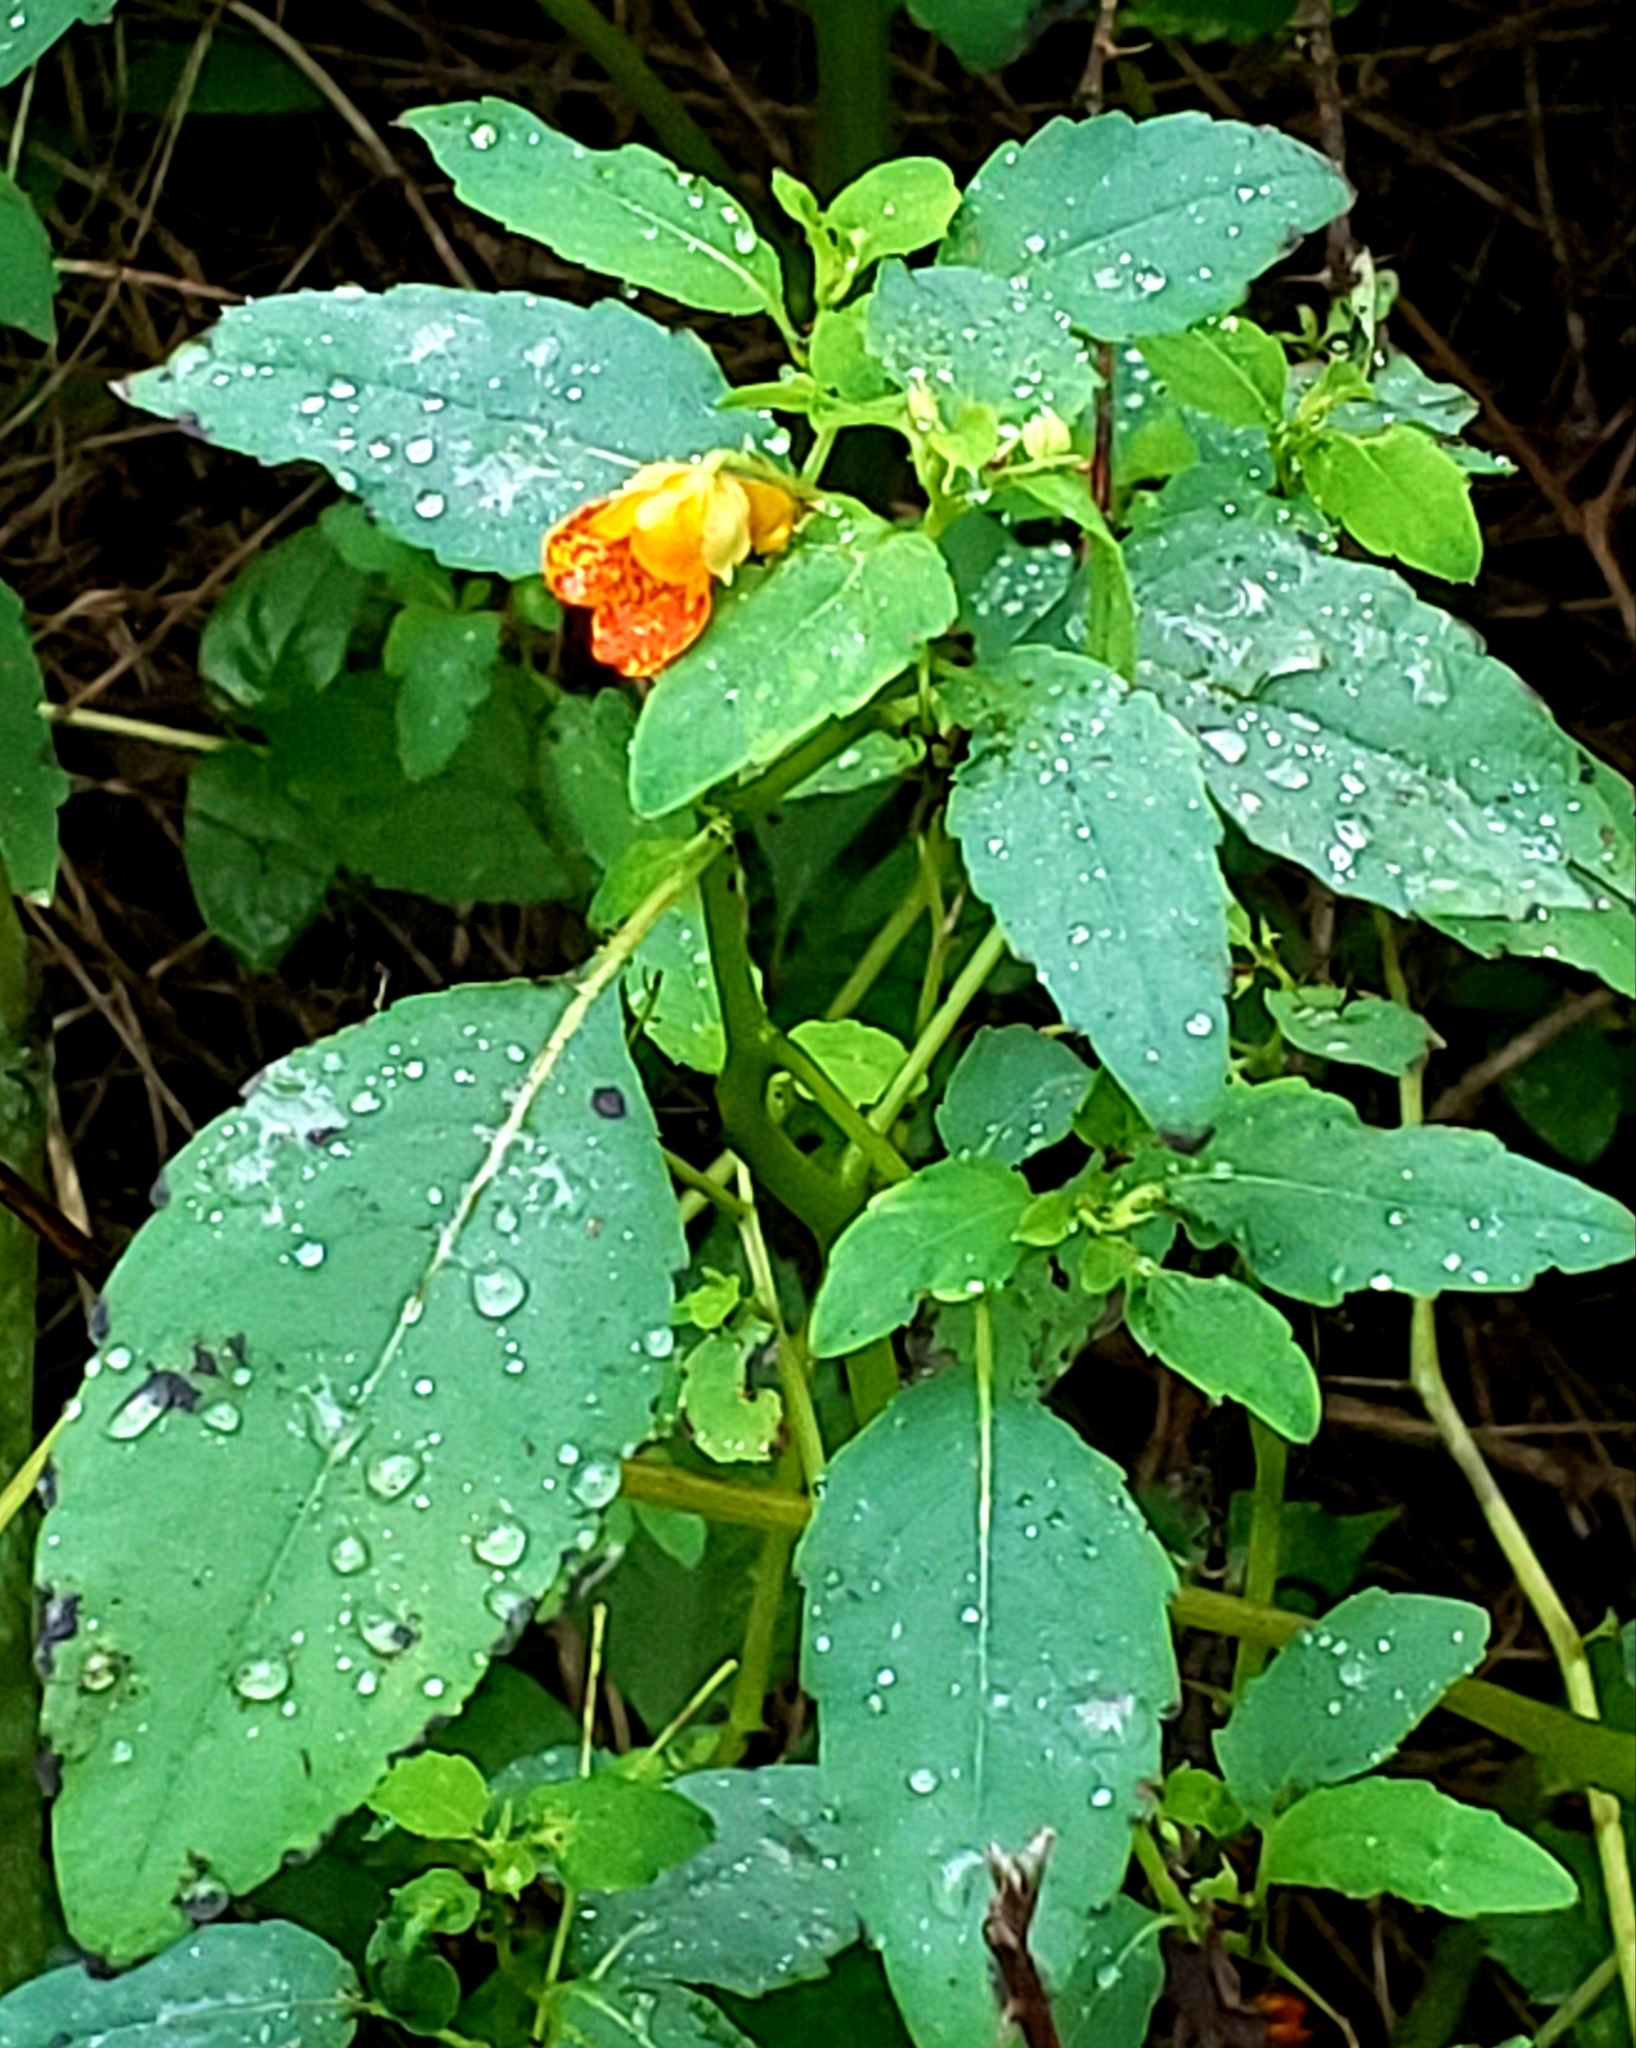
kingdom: Plantae
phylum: Tracheophyta
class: Magnoliopsida
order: Ericales
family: Balsaminaceae
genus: Impatiens
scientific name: Impatiens capensis
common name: Orange balsam
